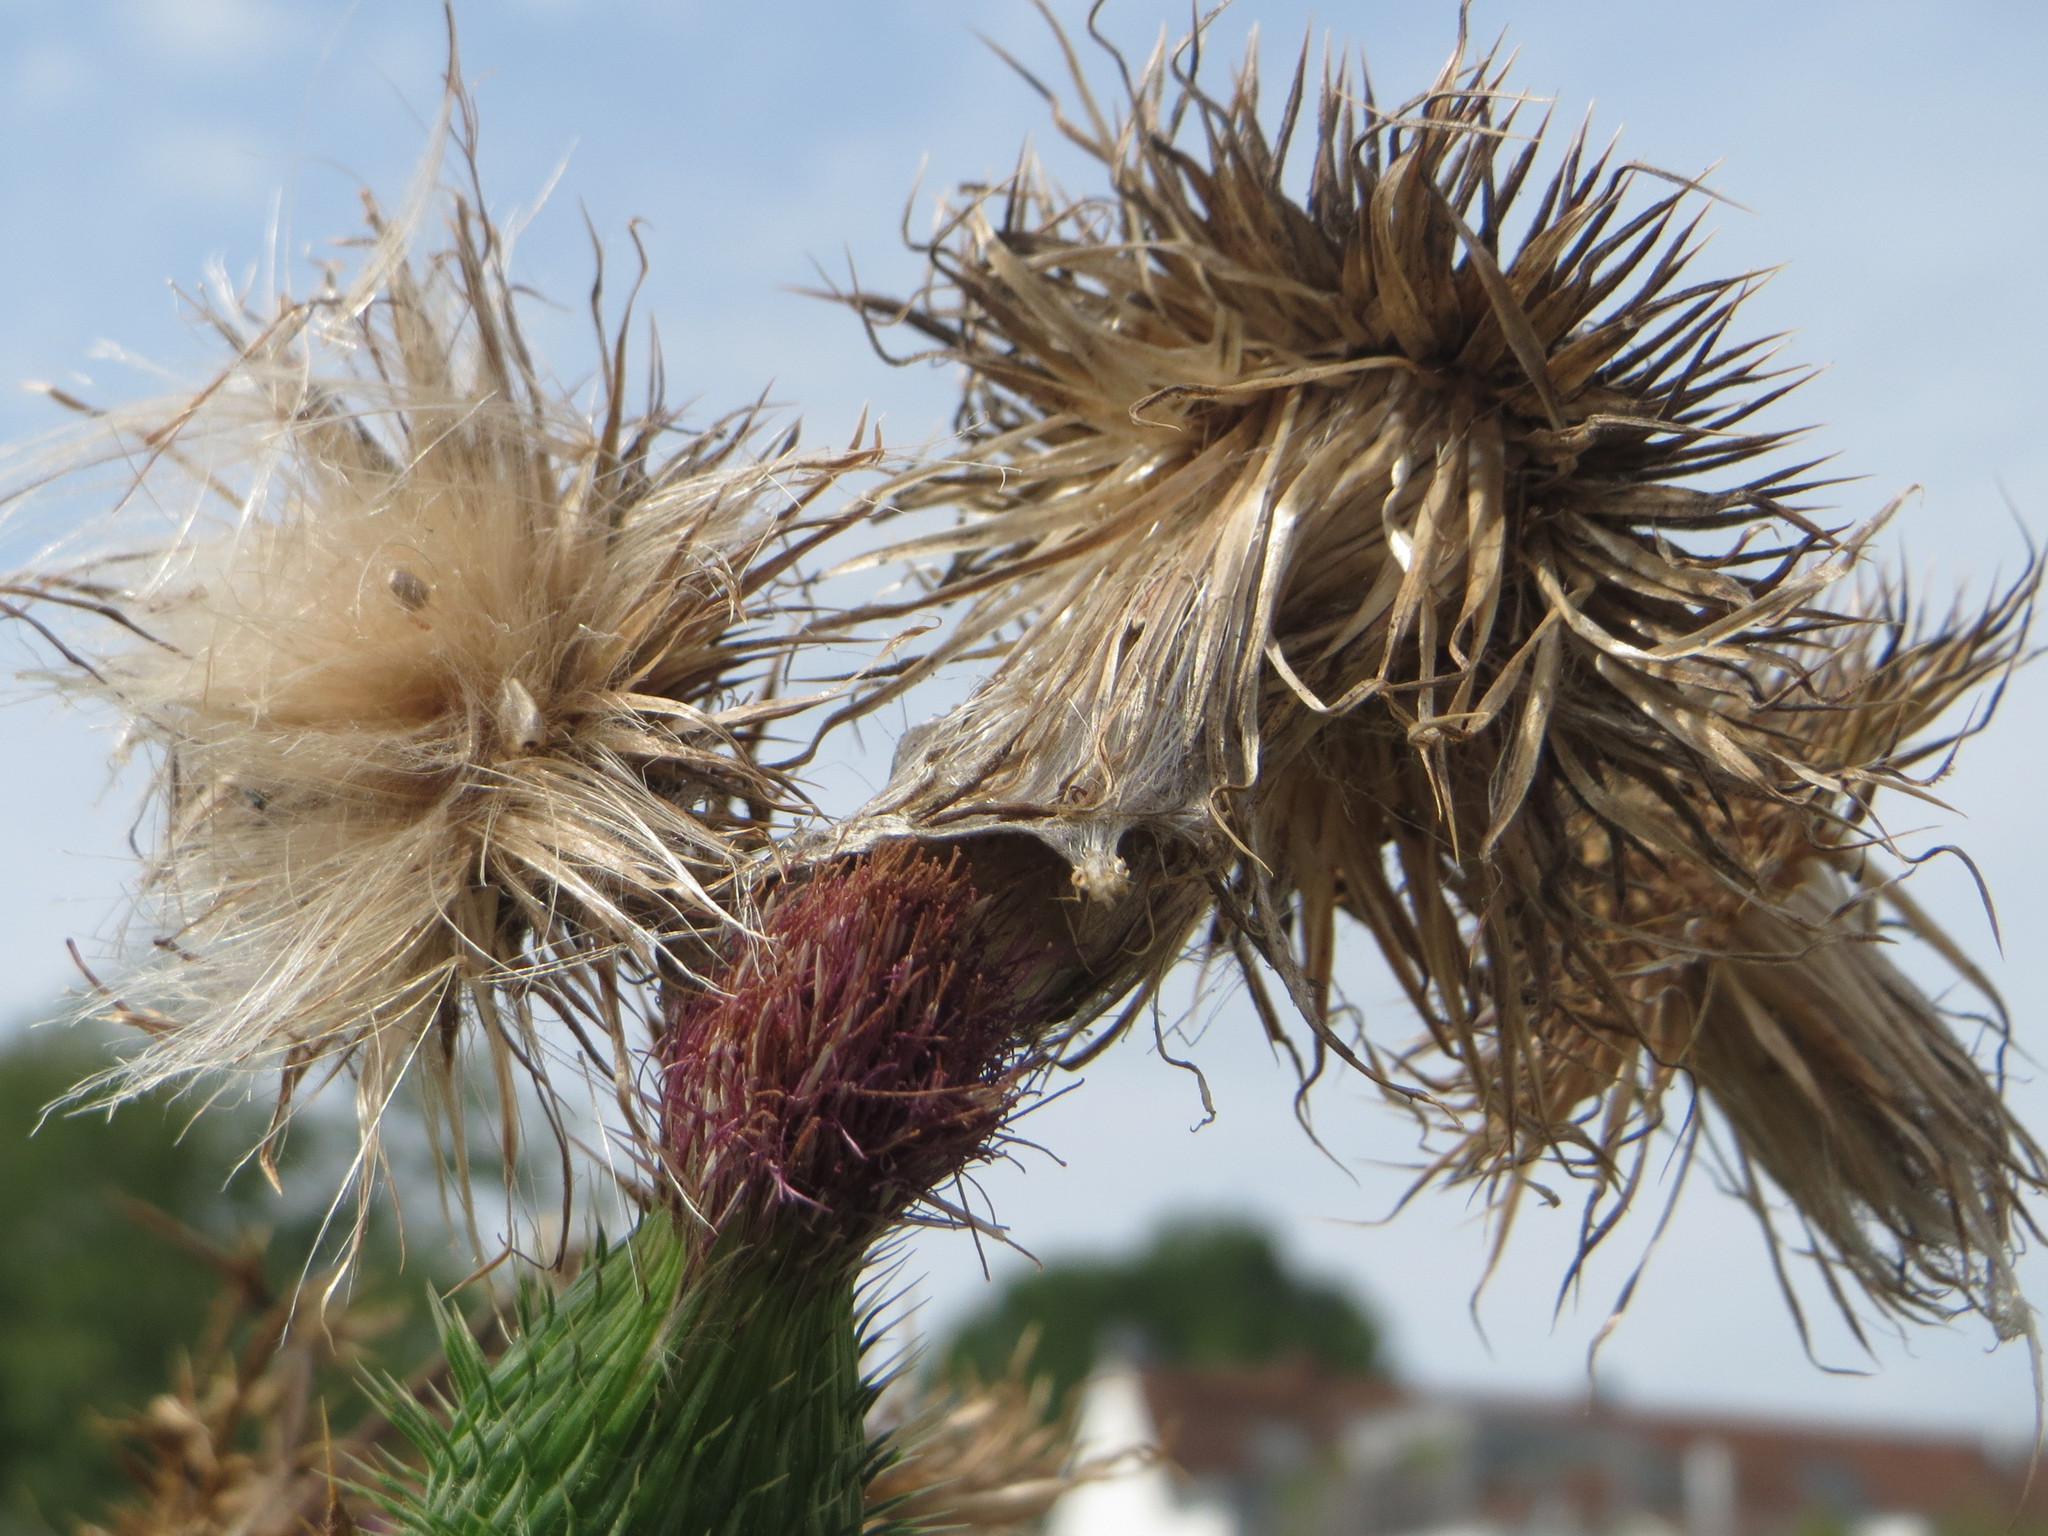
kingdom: Plantae
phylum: Tracheophyta
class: Magnoliopsida
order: Asterales
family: Asteraceae
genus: Cirsium
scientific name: Cirsium vulgare
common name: Bull thistle
